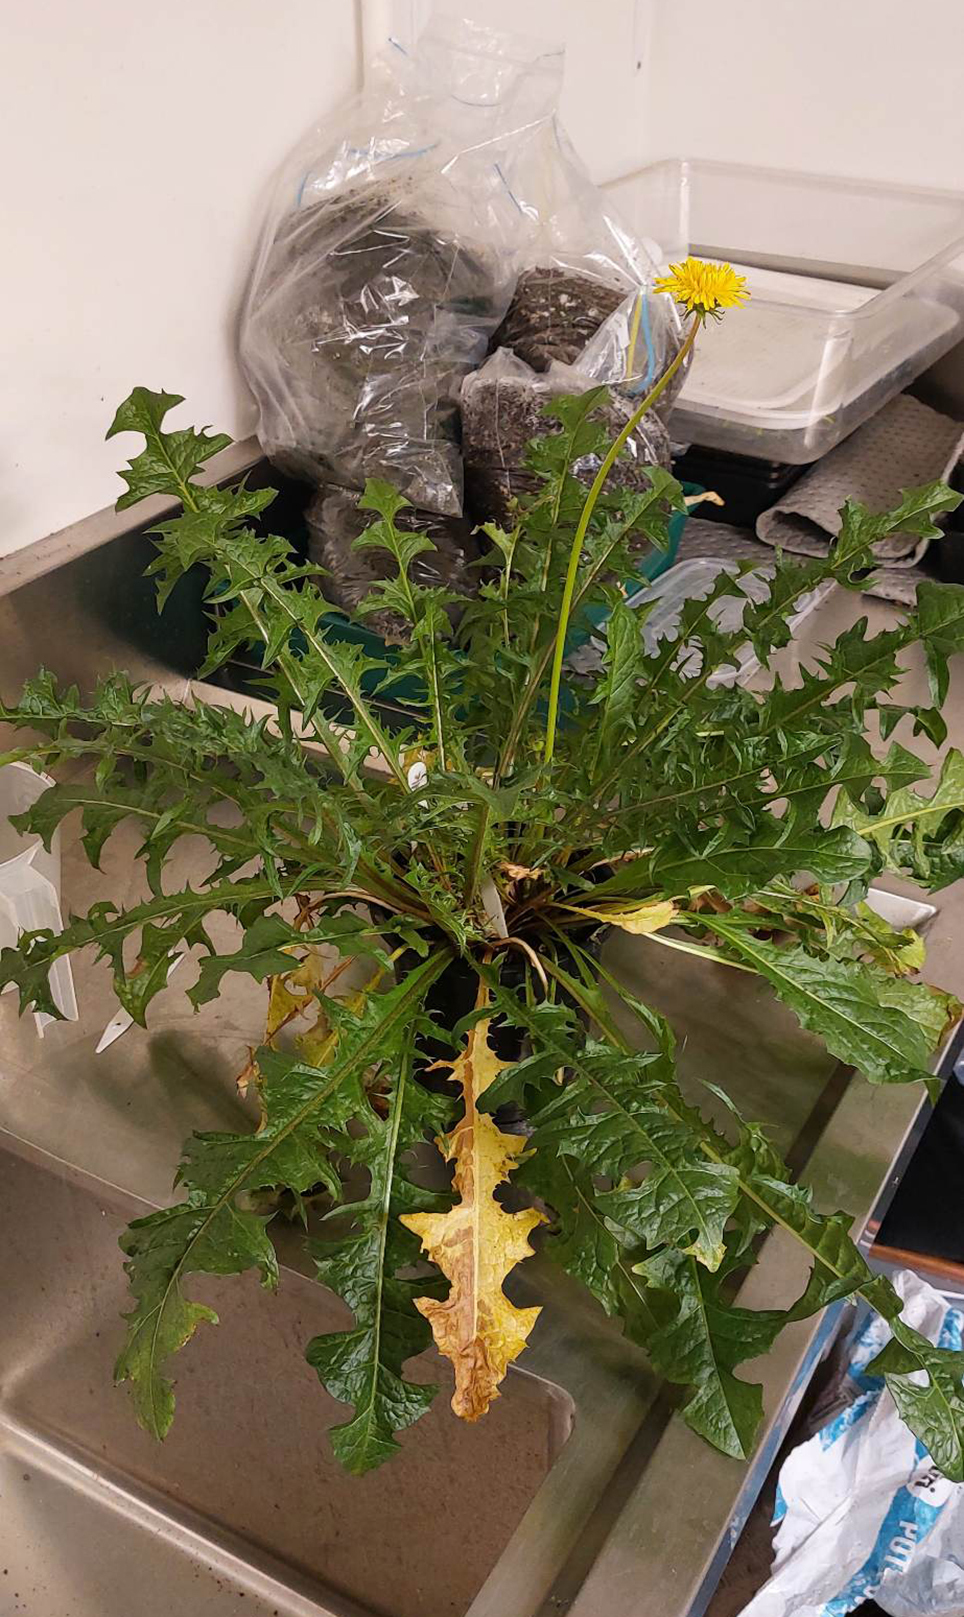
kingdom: Plantae
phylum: Tracheophyta
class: Magnoliopsida
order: Asterales
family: Asteraceae
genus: Taraxacum
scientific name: Taraxacum
